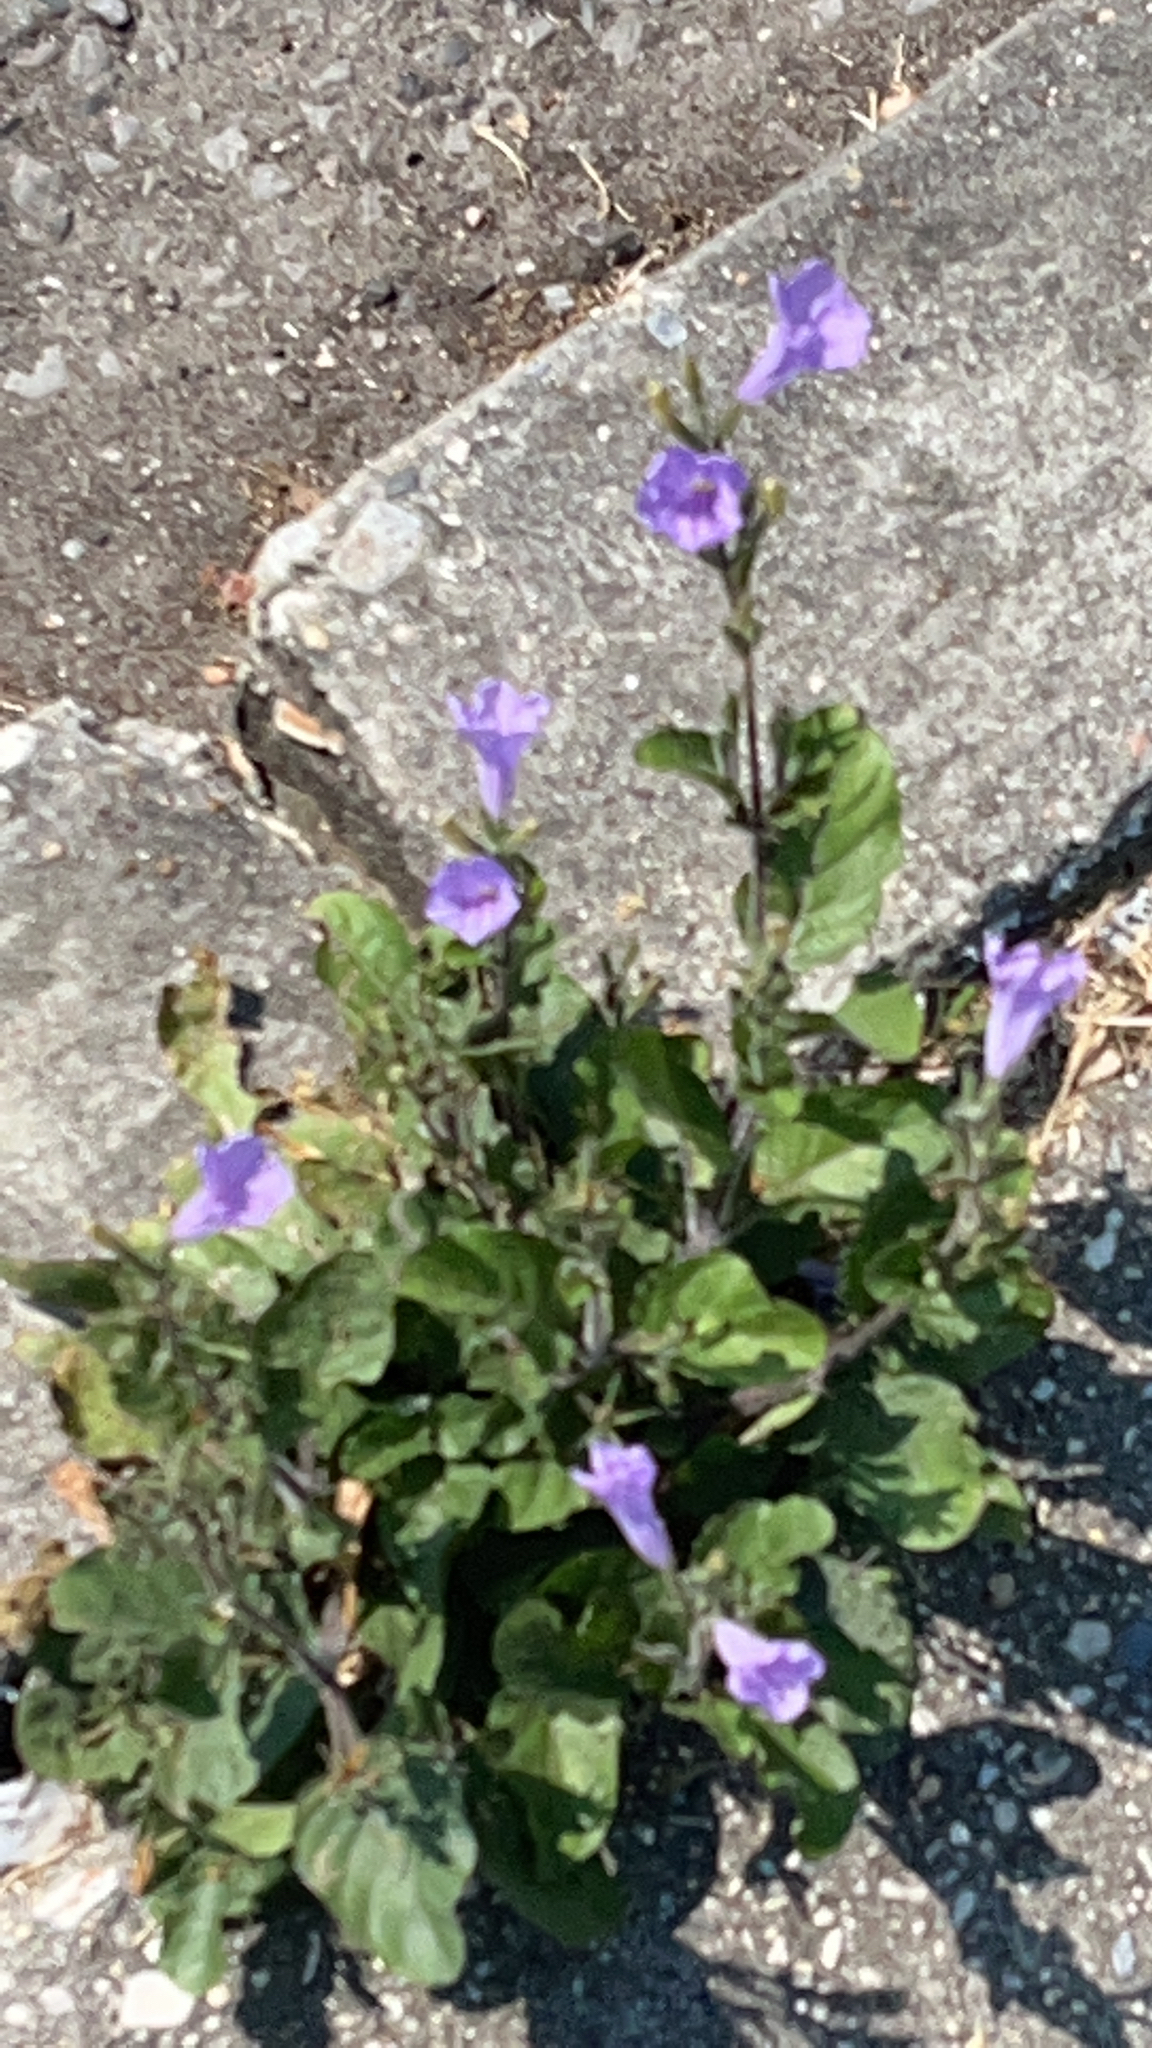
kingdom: Plantae
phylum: Tracheophyta
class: Magnoliopsida
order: Lamiales
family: Acanthaceae
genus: Ruellia
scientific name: Ruellia ciliatiflora
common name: Hairyflower wild petunia
